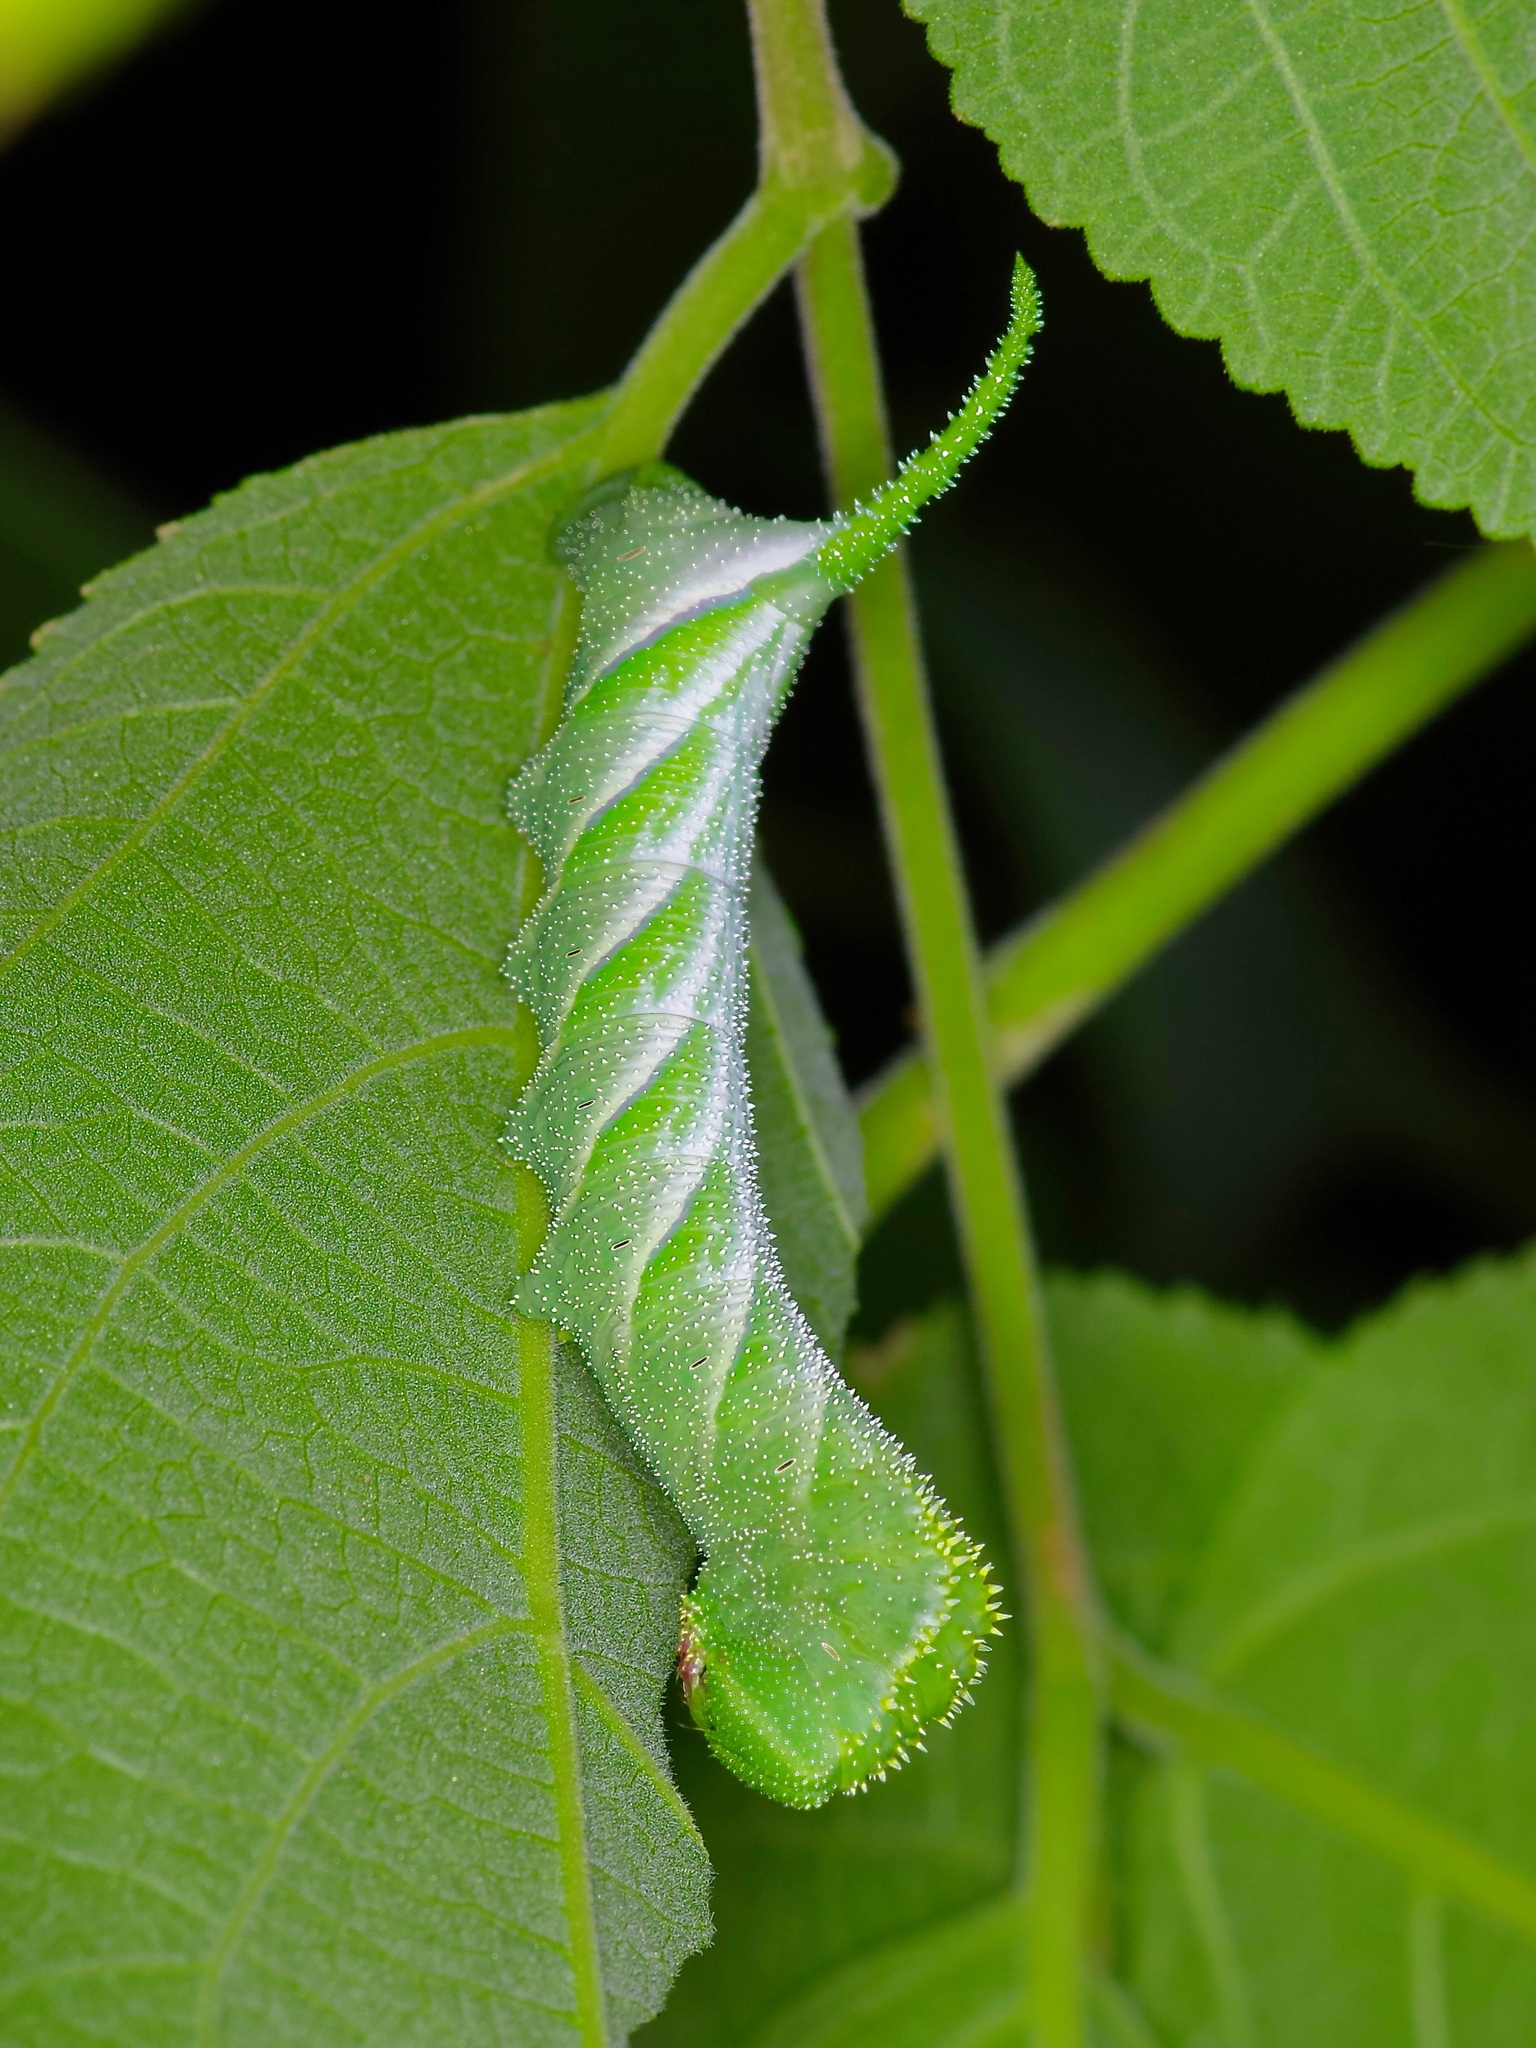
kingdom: Animalia
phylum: Arthropoda
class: Insecta
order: Lepidoptera
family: Sphingidae
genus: Manduca
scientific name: Manduca rustica
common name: Rustic sphinx
